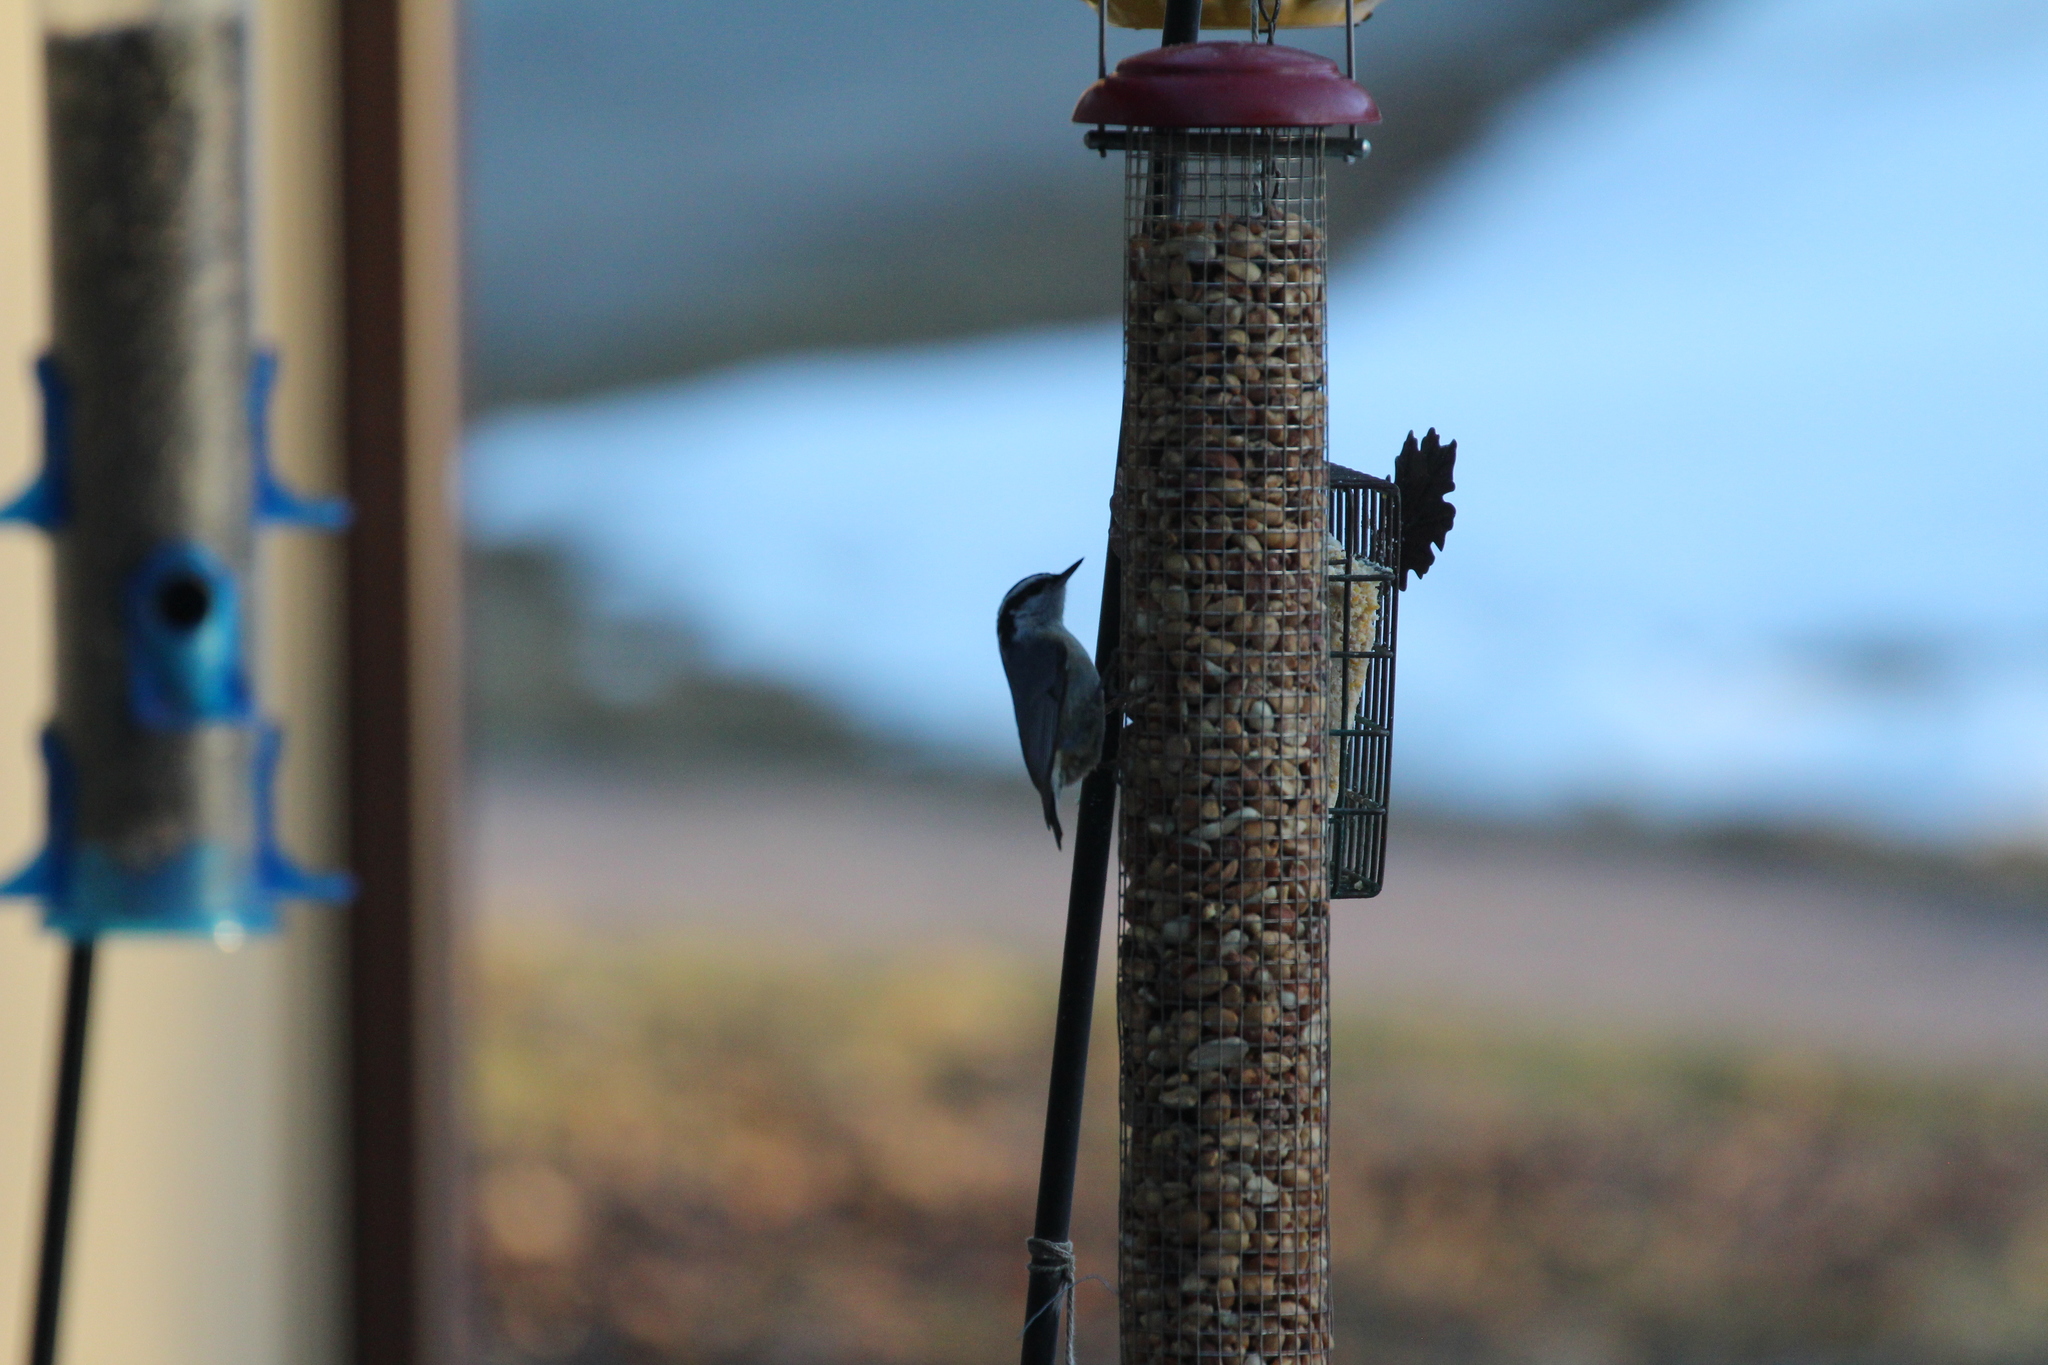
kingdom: Animalia
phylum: Chordata
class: Aves
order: Passeriformes
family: Sittidae
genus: Sitta
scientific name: Sitta canadensis
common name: Red-breasted nuthatch
